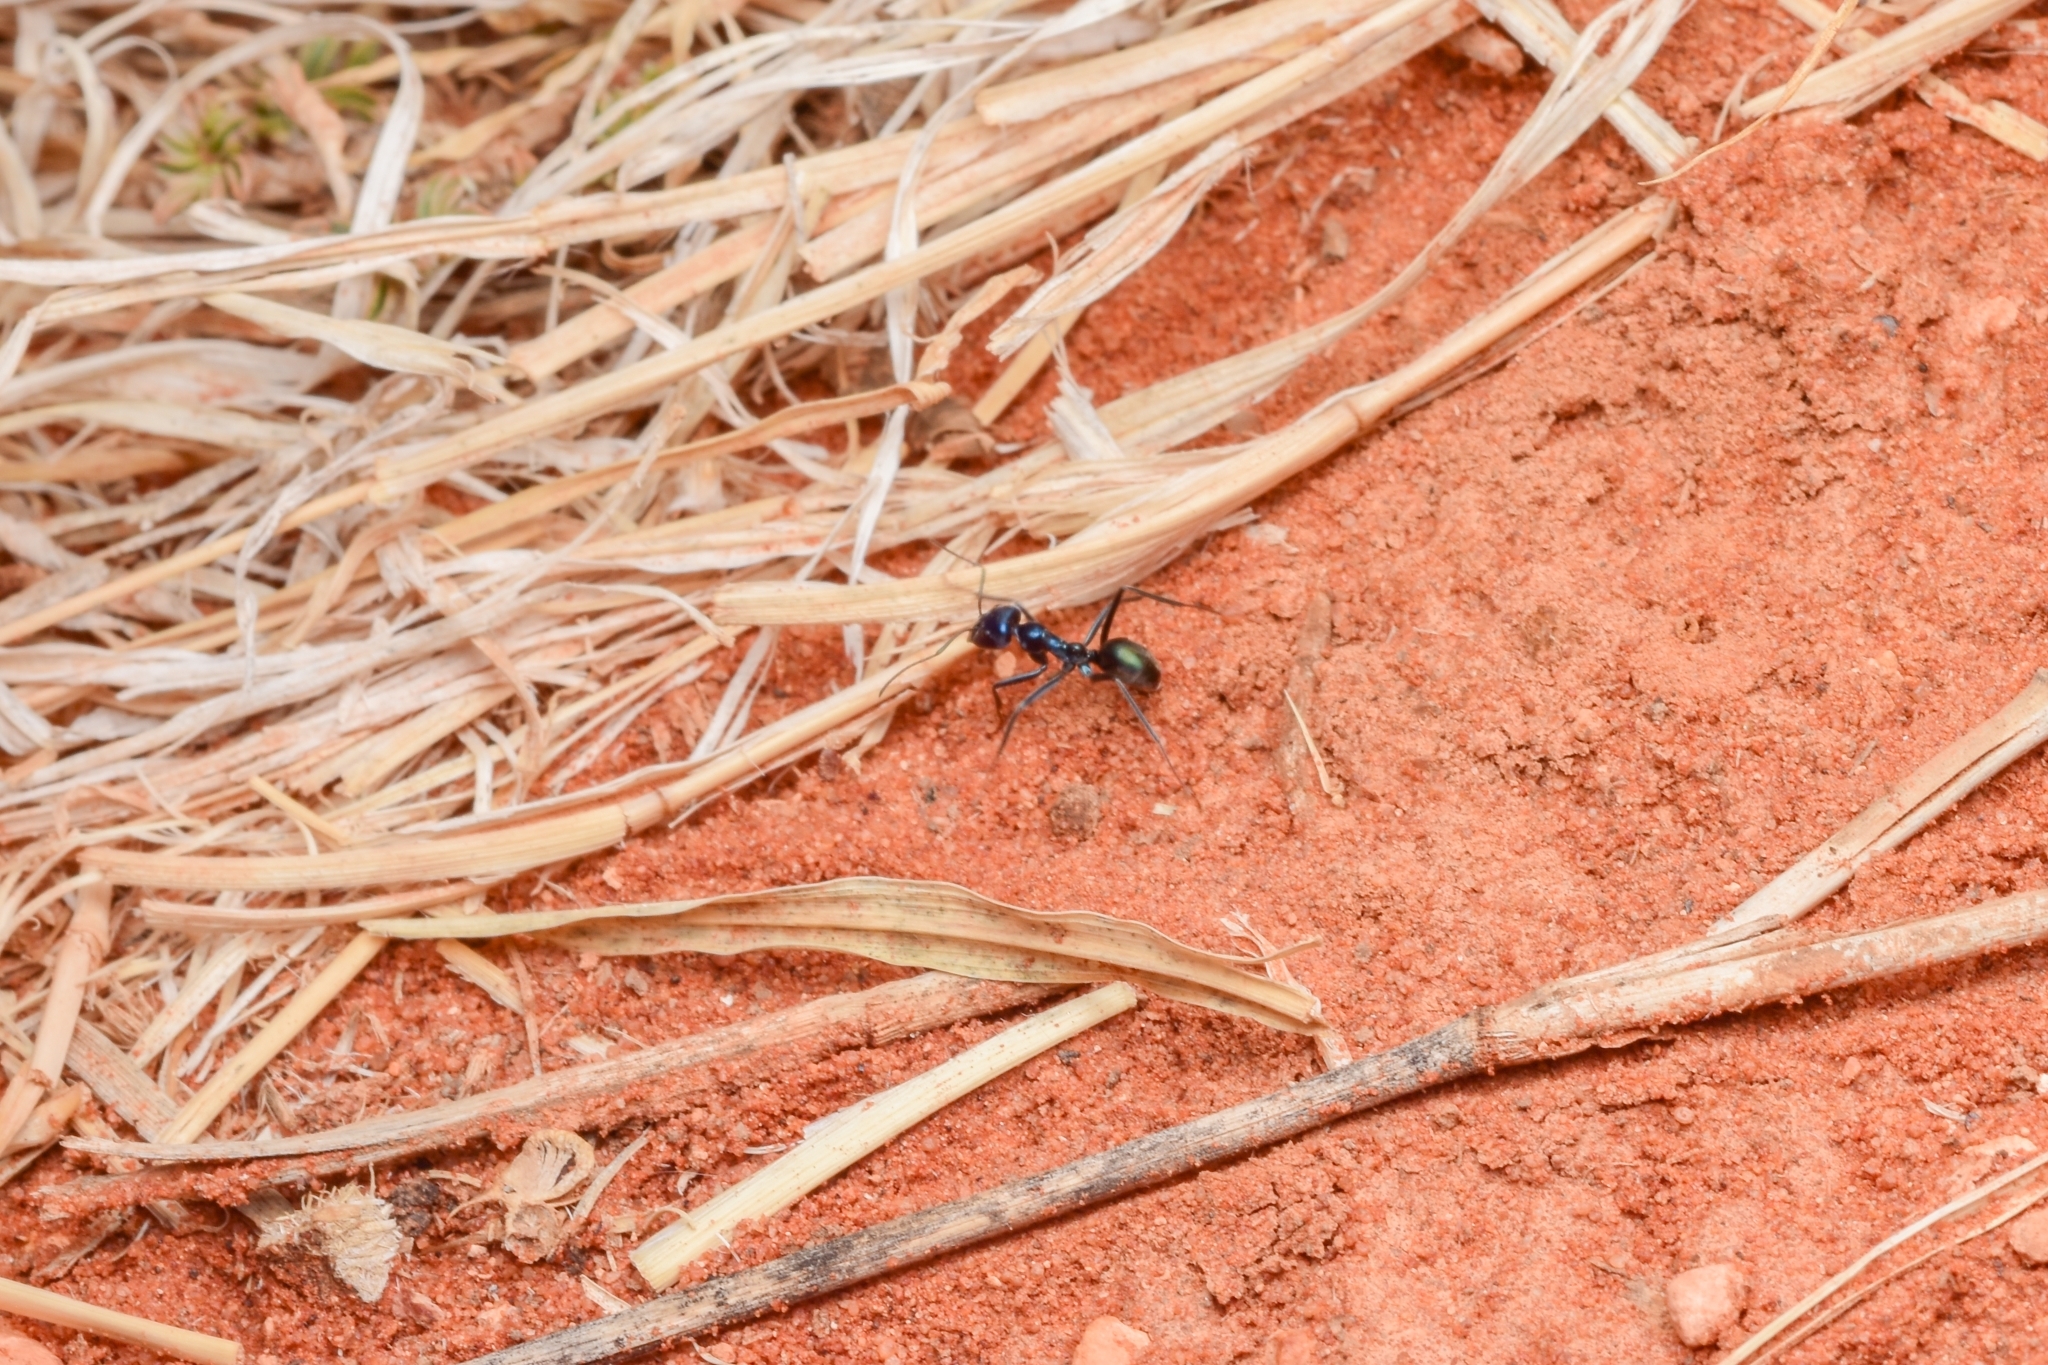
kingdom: Animalia
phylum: Arthropoda
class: Insecta
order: Hymenoptera
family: Formicidae
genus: Iridomyrmex
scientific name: Iridomyrmex lividus
